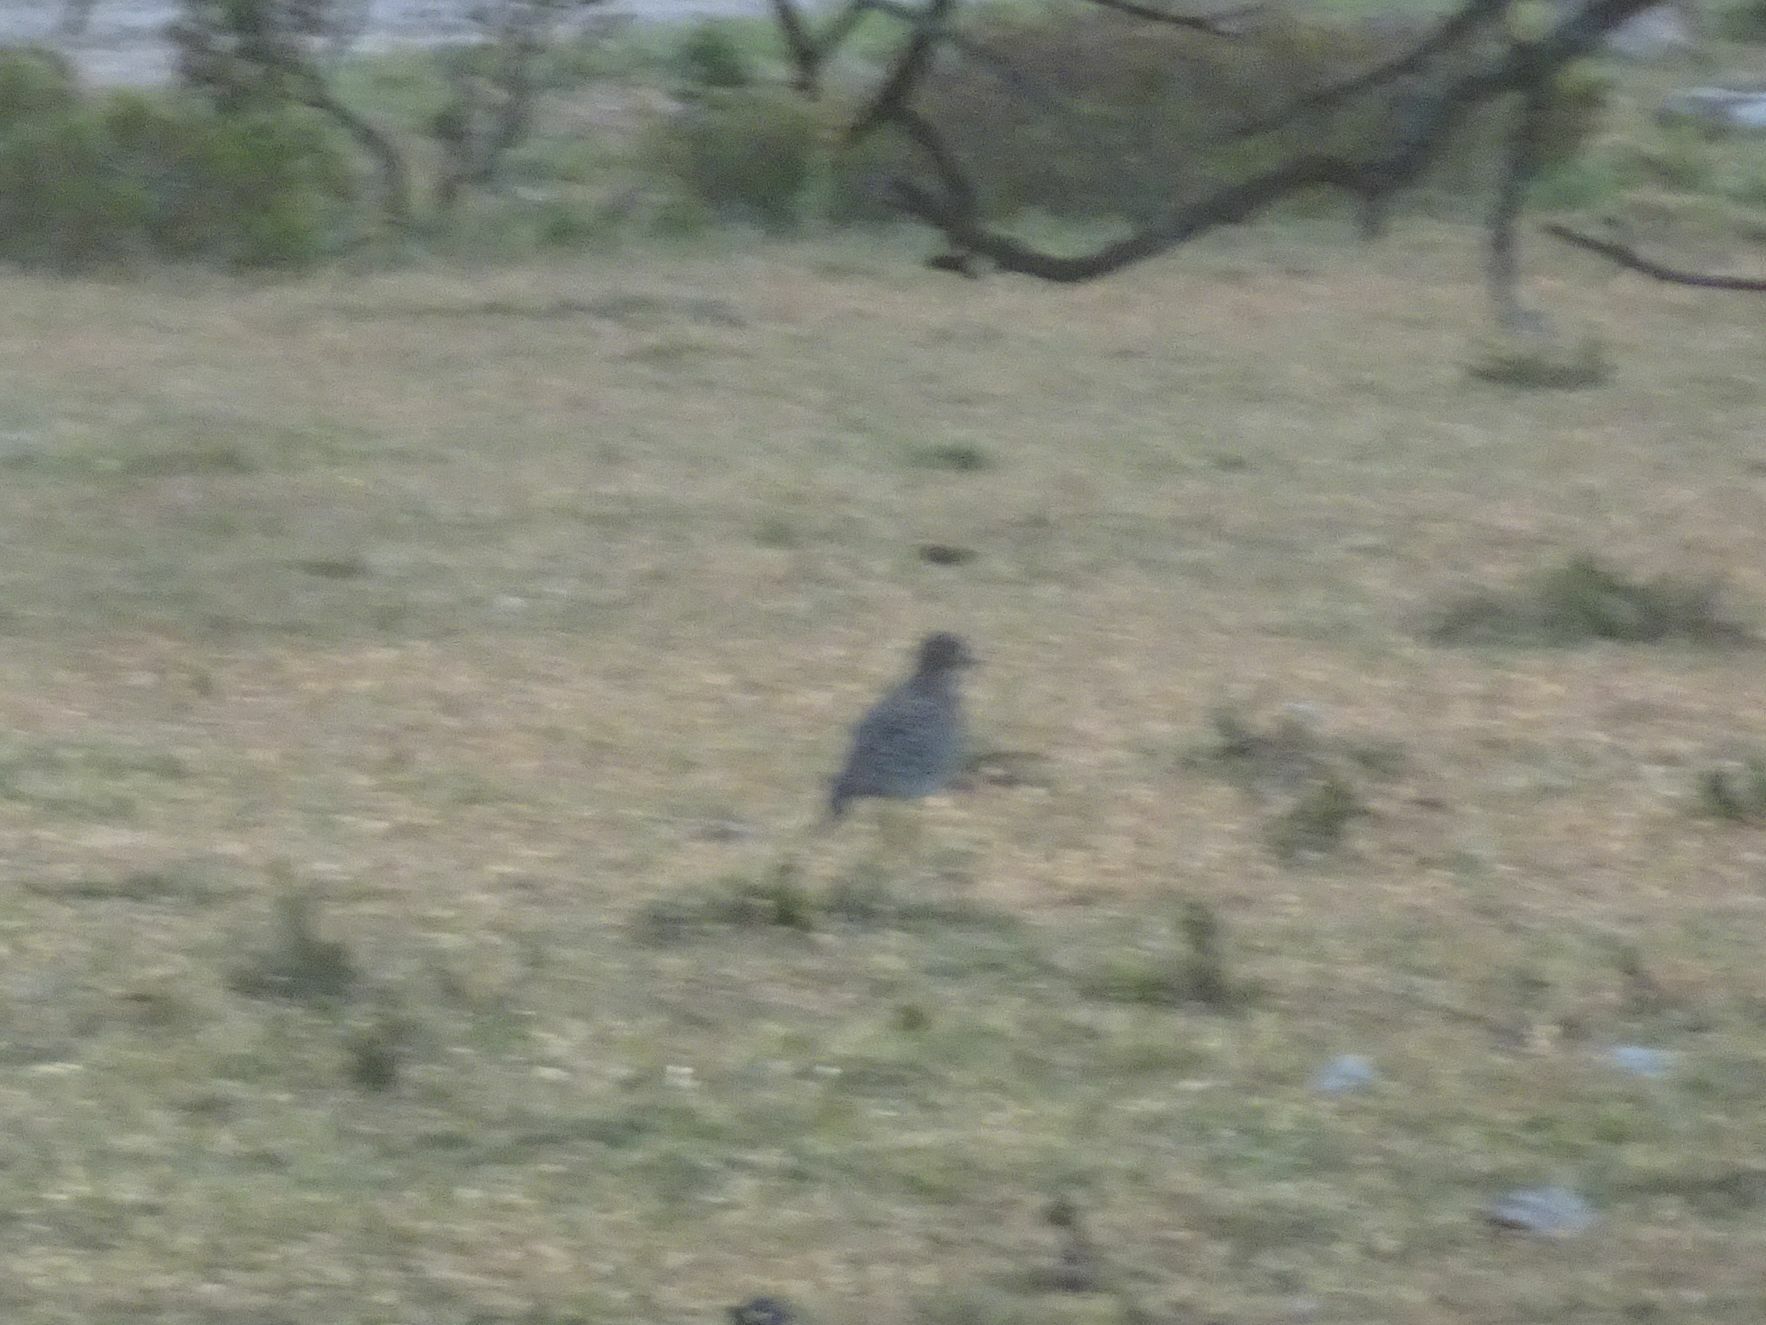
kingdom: Animalia
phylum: Chordata
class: Aves
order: Charadriiformes
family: Burhinidae
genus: Burhinus
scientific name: Burhinus capensis
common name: Spotted thick-knee
